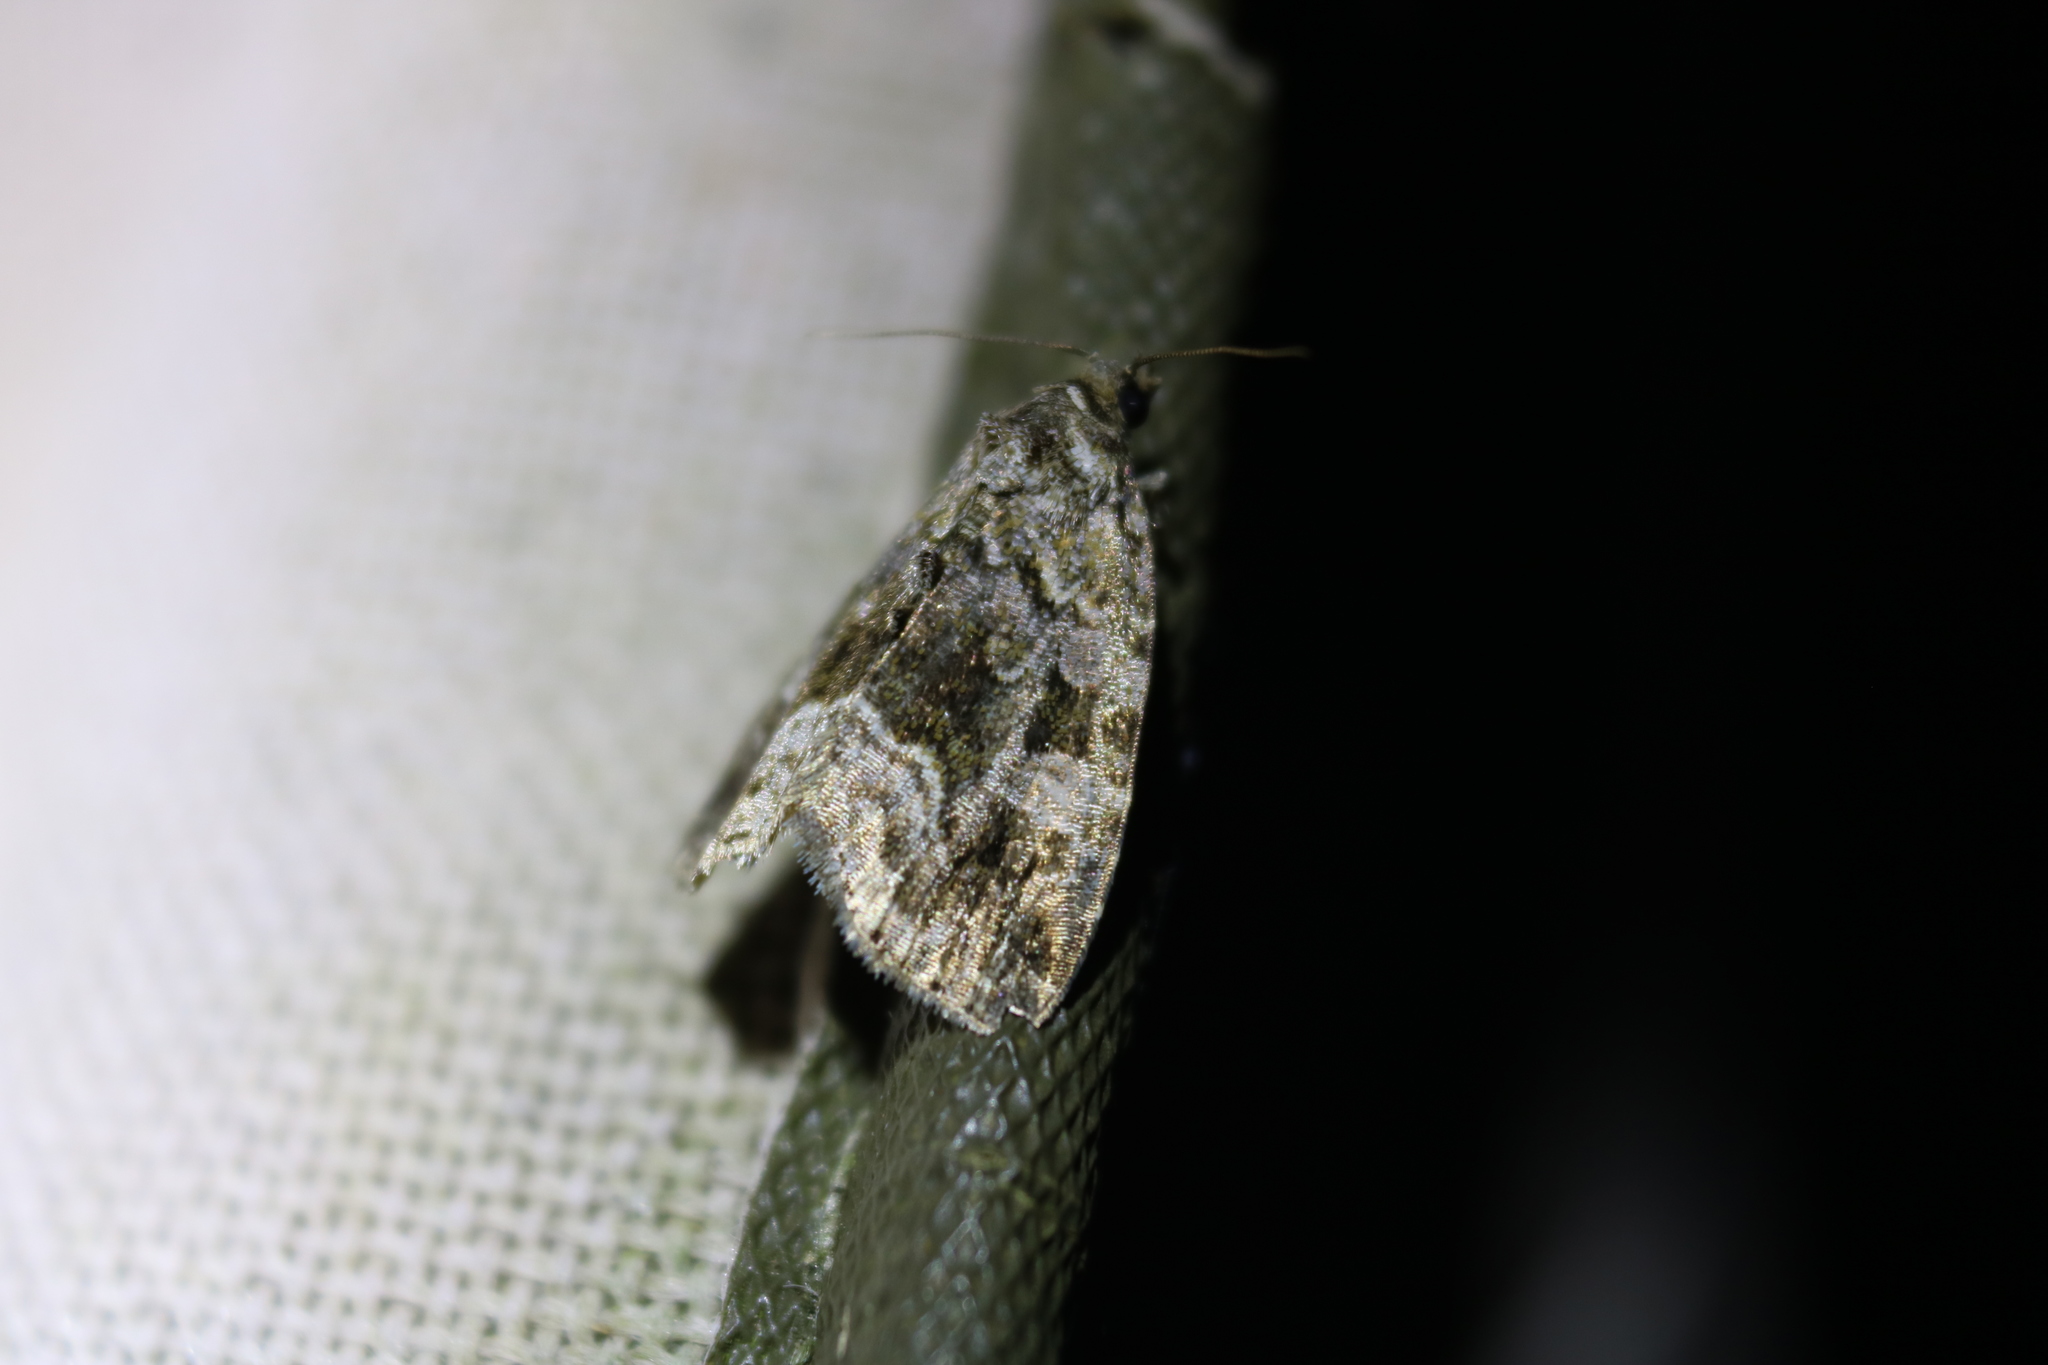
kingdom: Animalia
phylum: Arthropoda
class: Insecta
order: Lepidoptera
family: Noctuidae
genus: Protodeltote
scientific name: Protodeltote muscosula
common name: Large mossy glyph
